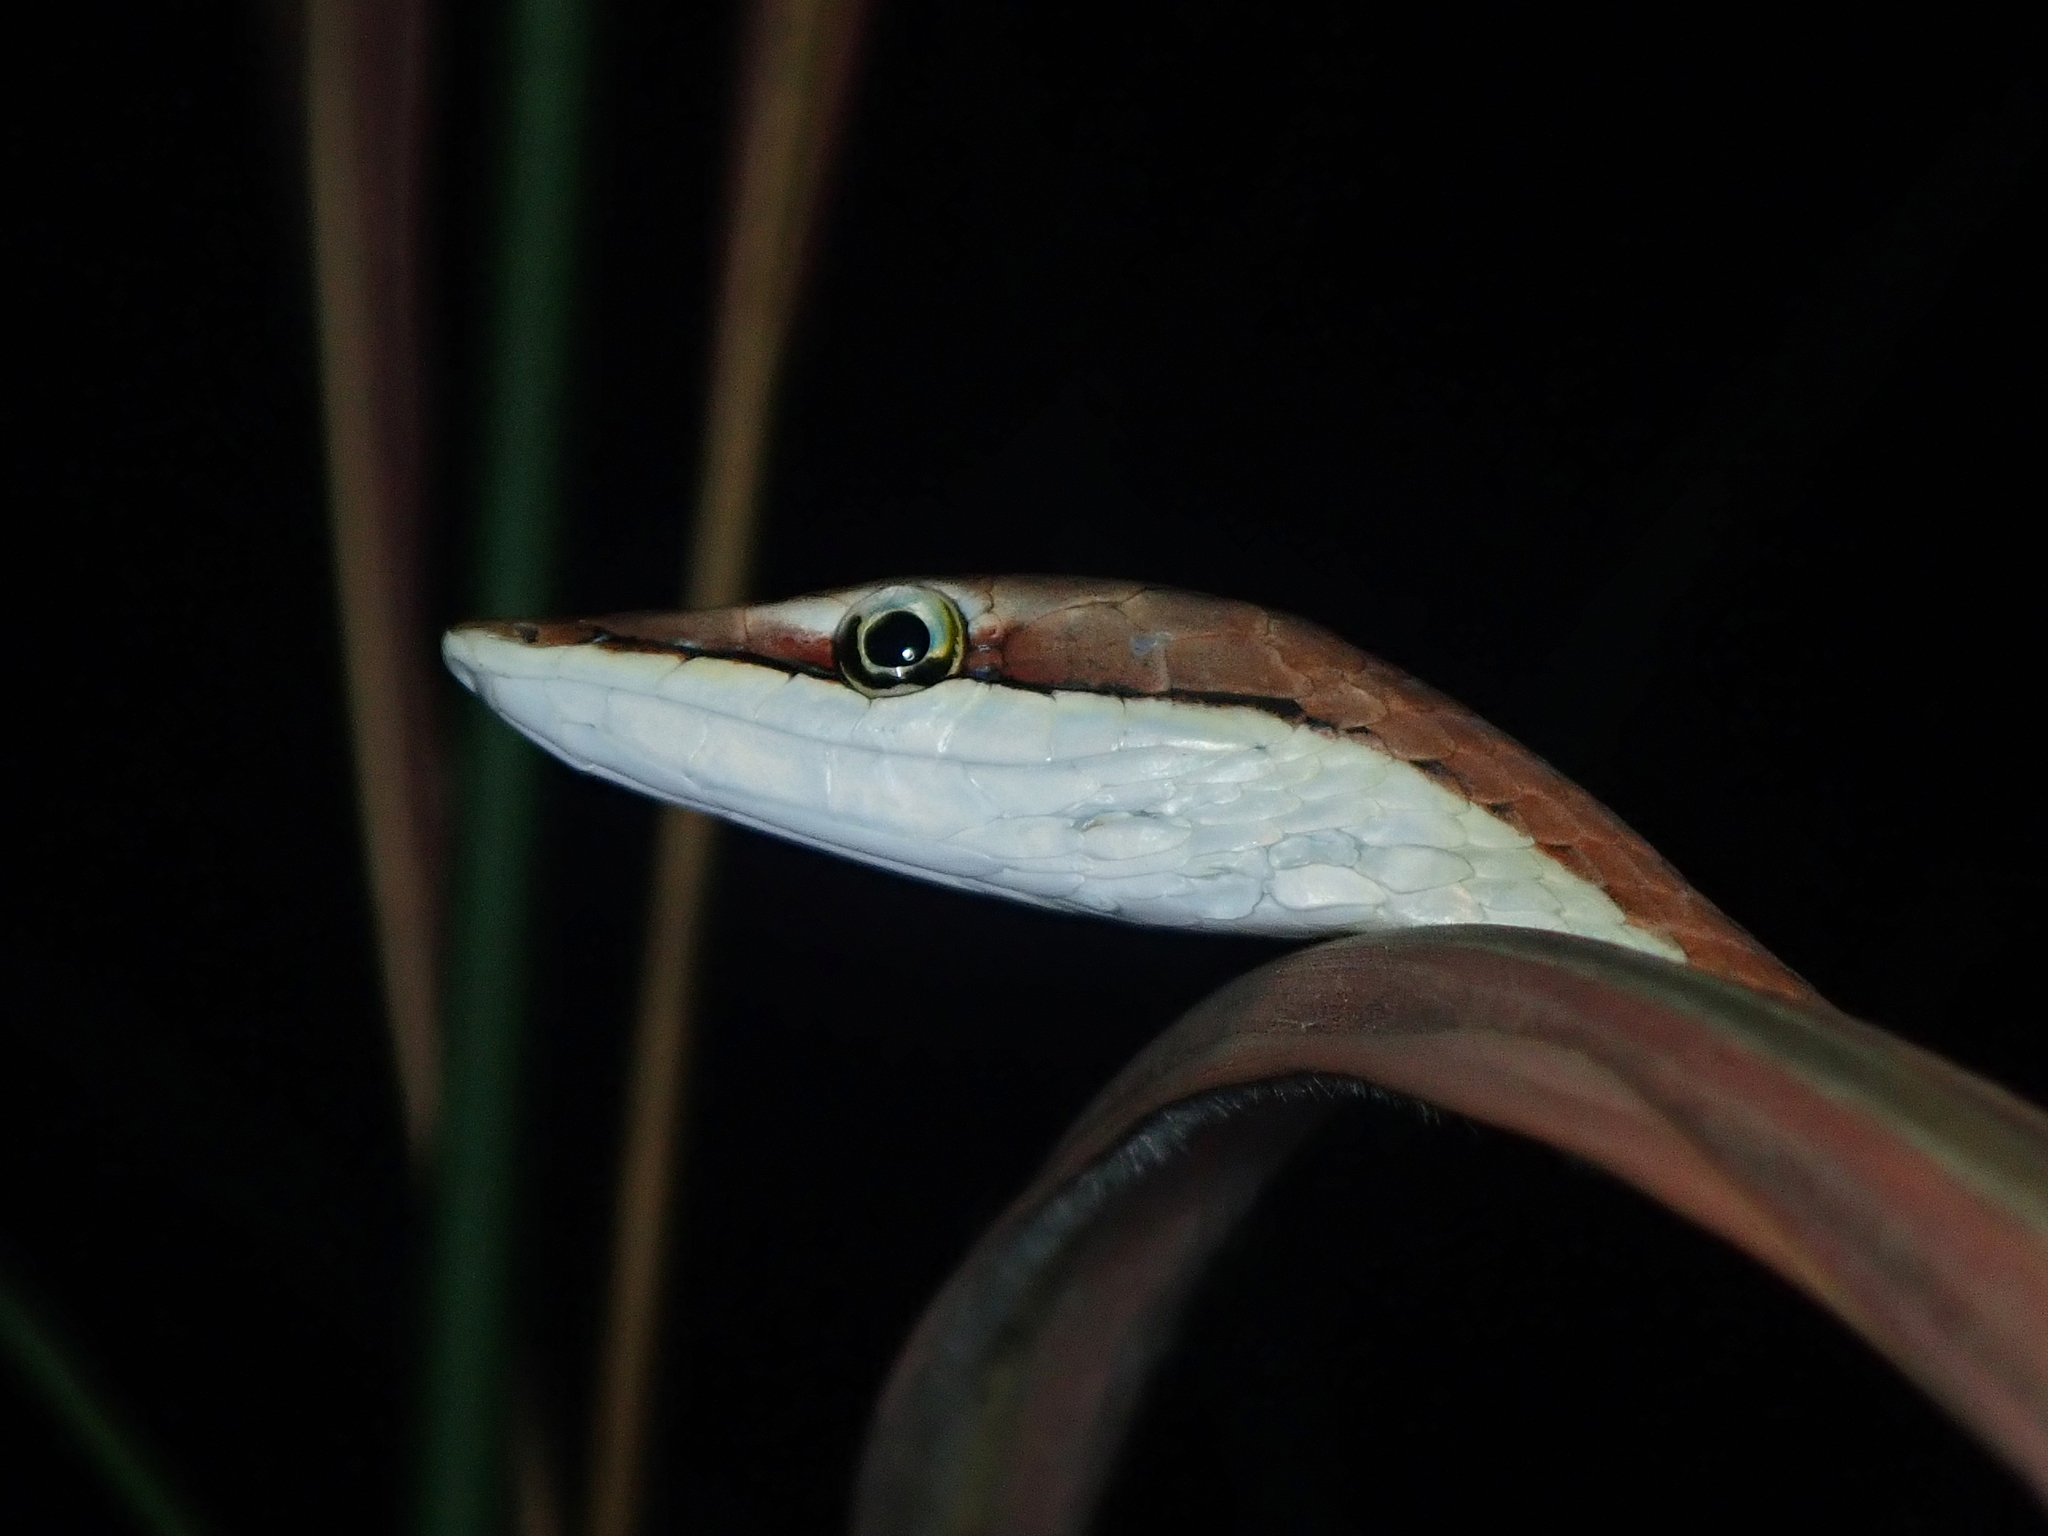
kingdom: Animalia
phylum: Chordata
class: Squamata
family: Colubridae
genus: Oxybelis
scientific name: Oxybelis aeneus
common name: Brown vinesnake
